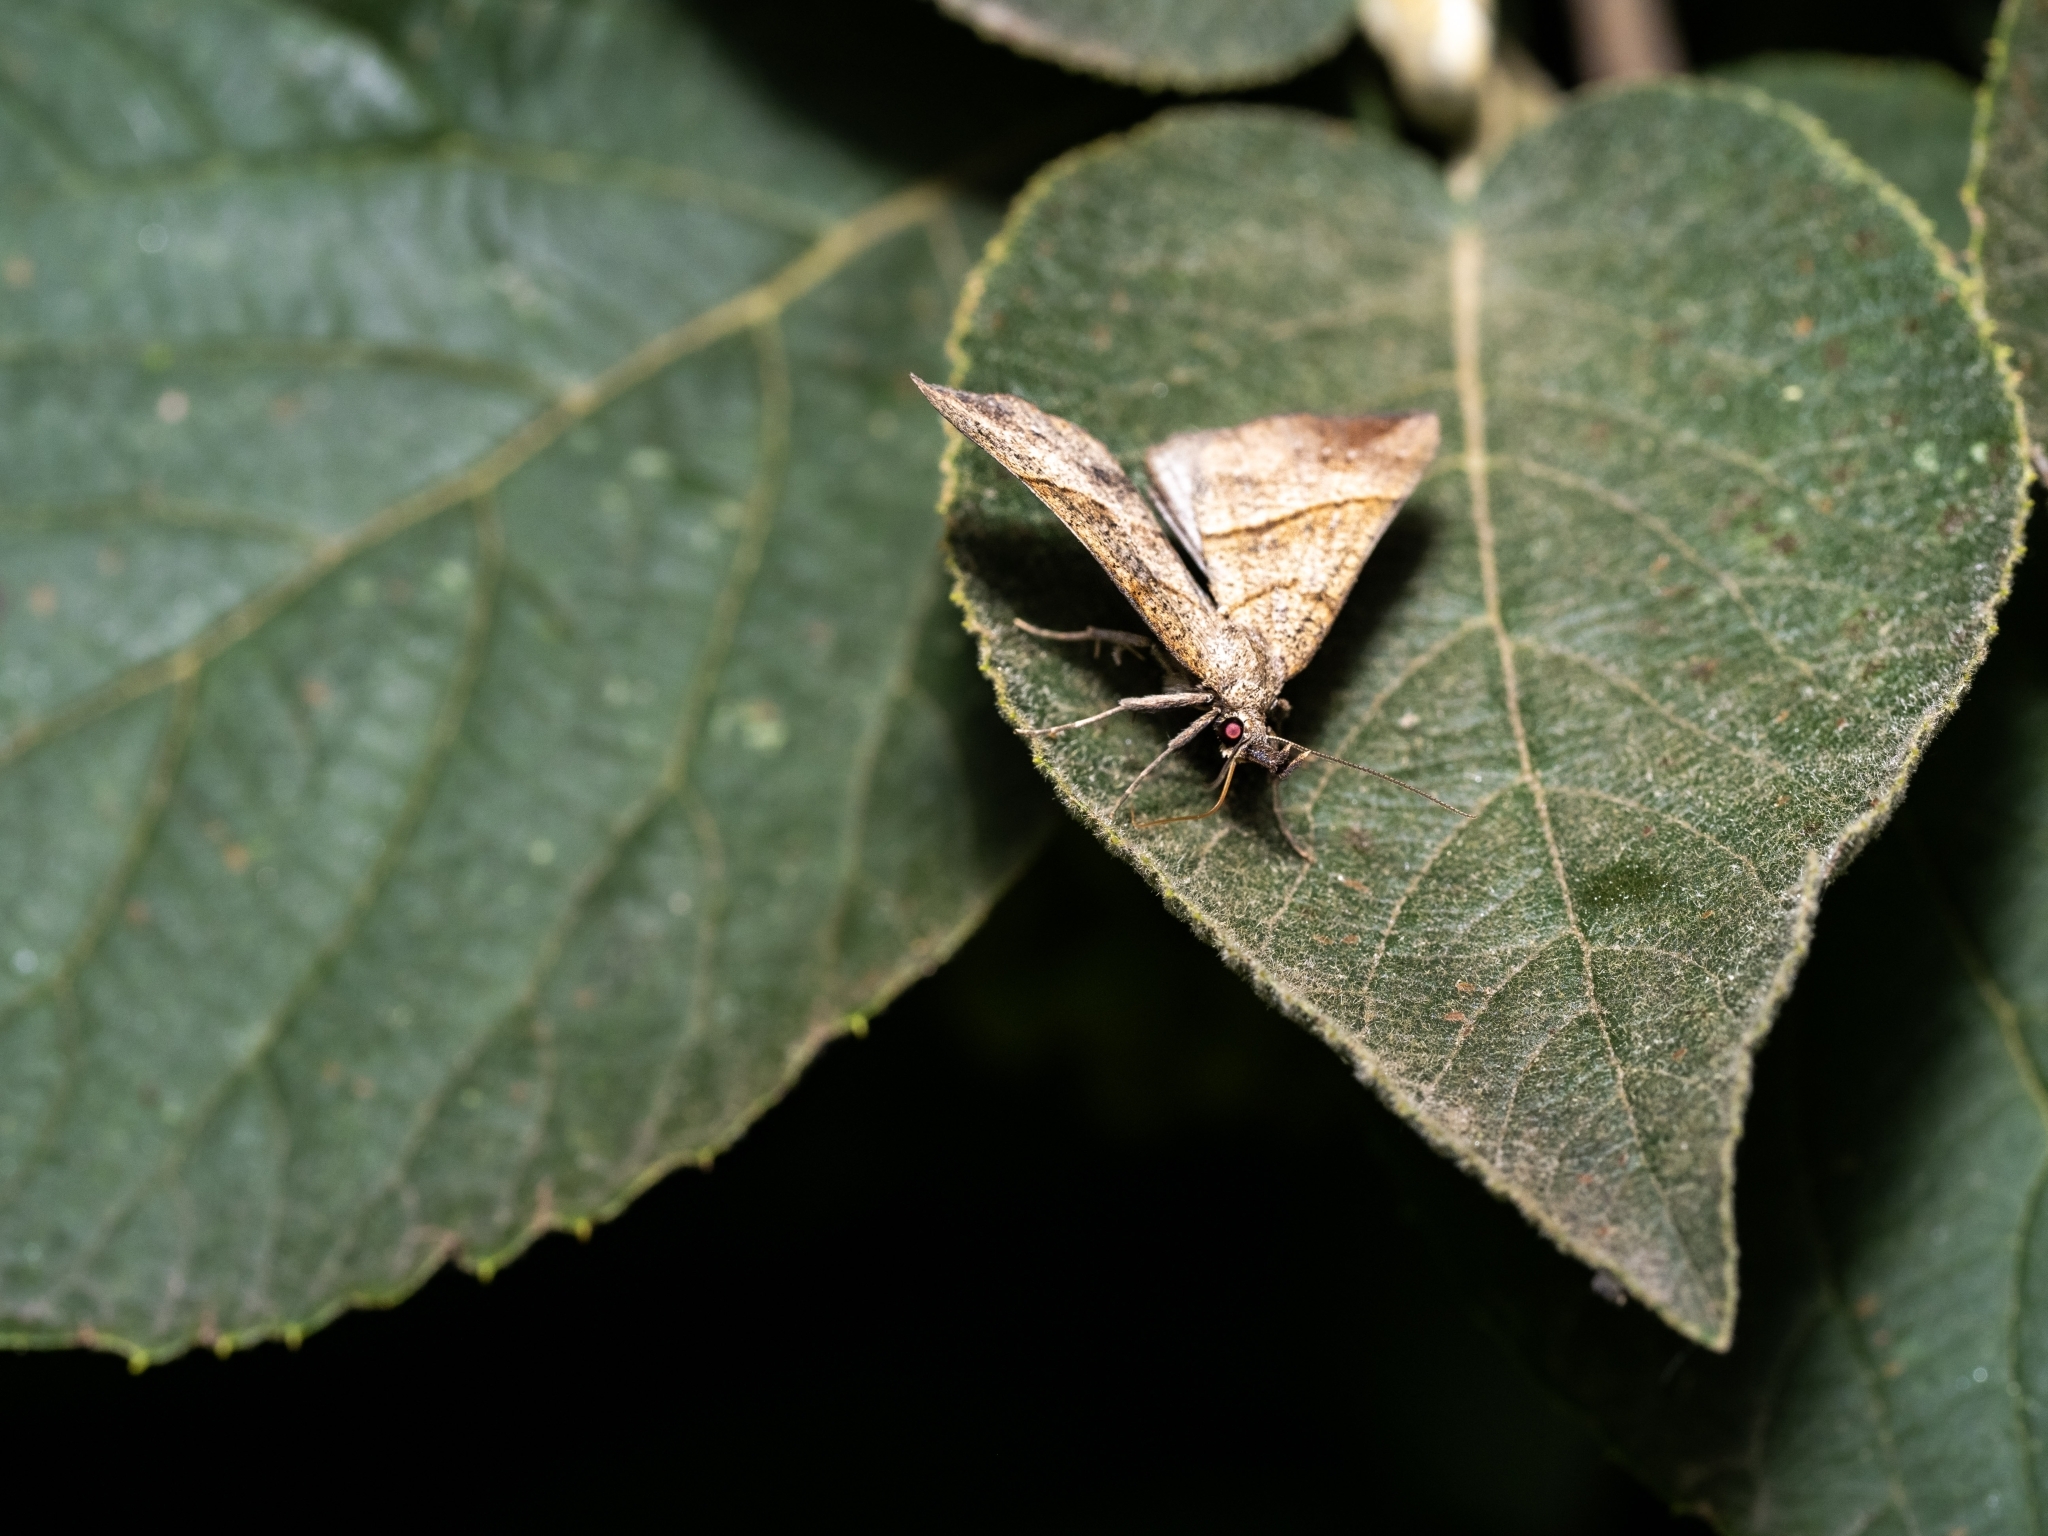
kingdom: Animalia
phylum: Arthropoda
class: Insecta
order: Lepidoptera
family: Erebidae
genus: Hypena
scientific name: Hypena proboscidalis
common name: Snout
